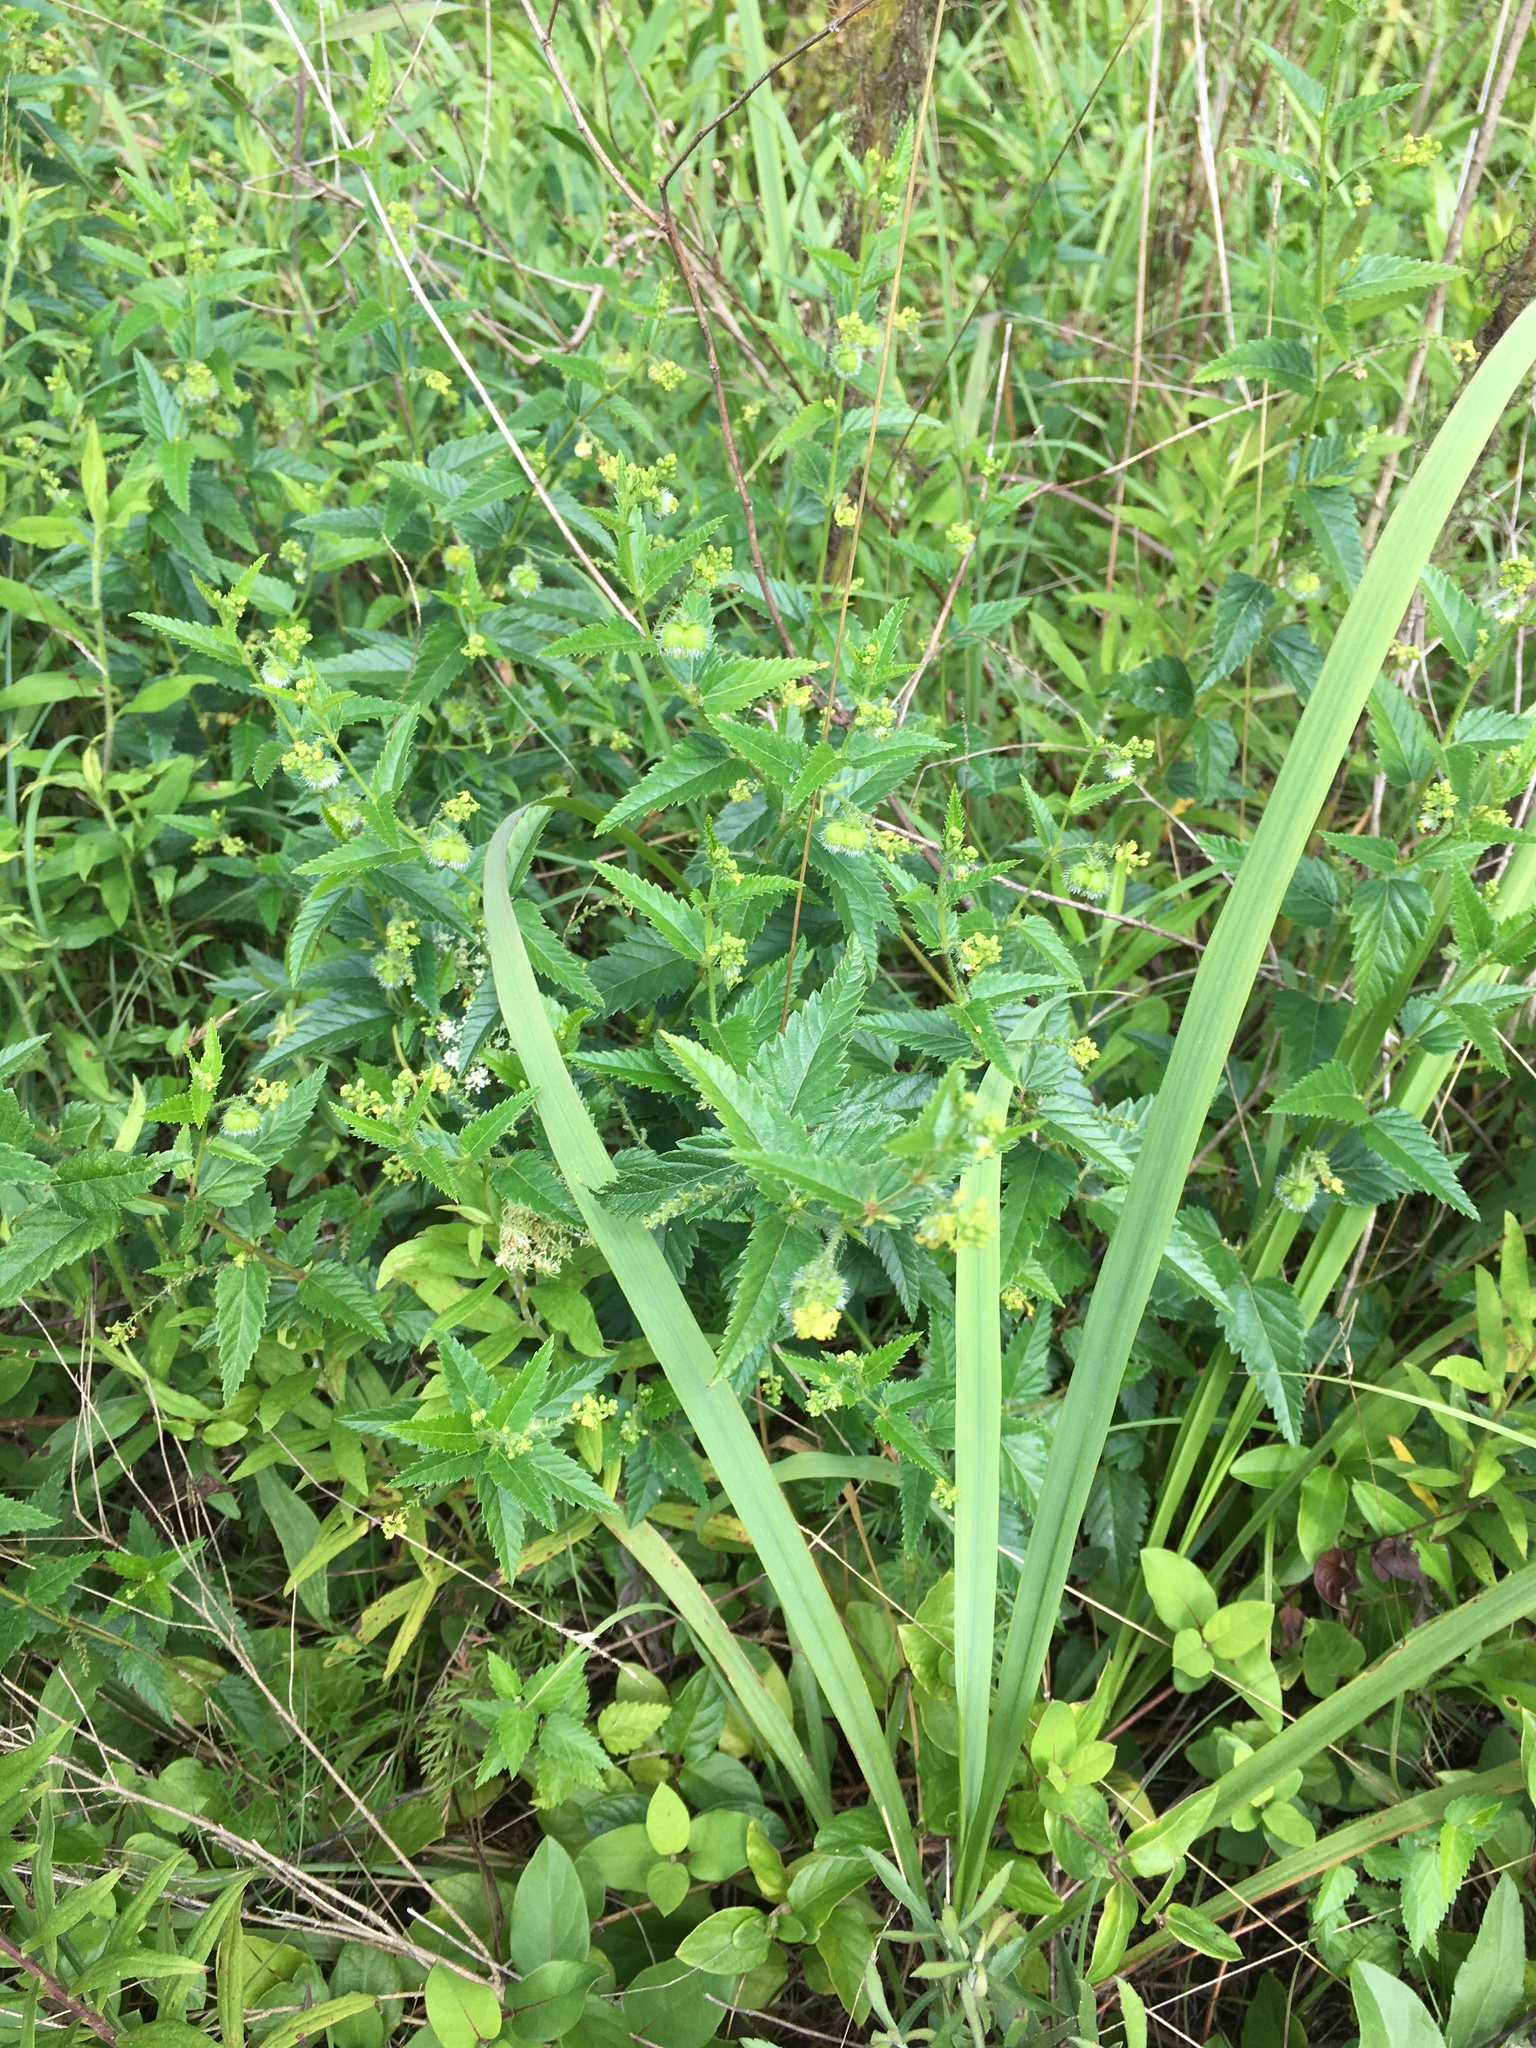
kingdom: Plantae
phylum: Tracheophyta
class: Magnoliopsida
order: Malpighiales
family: Euphorbiaceae
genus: Tragia
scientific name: Tragia urticifolia
